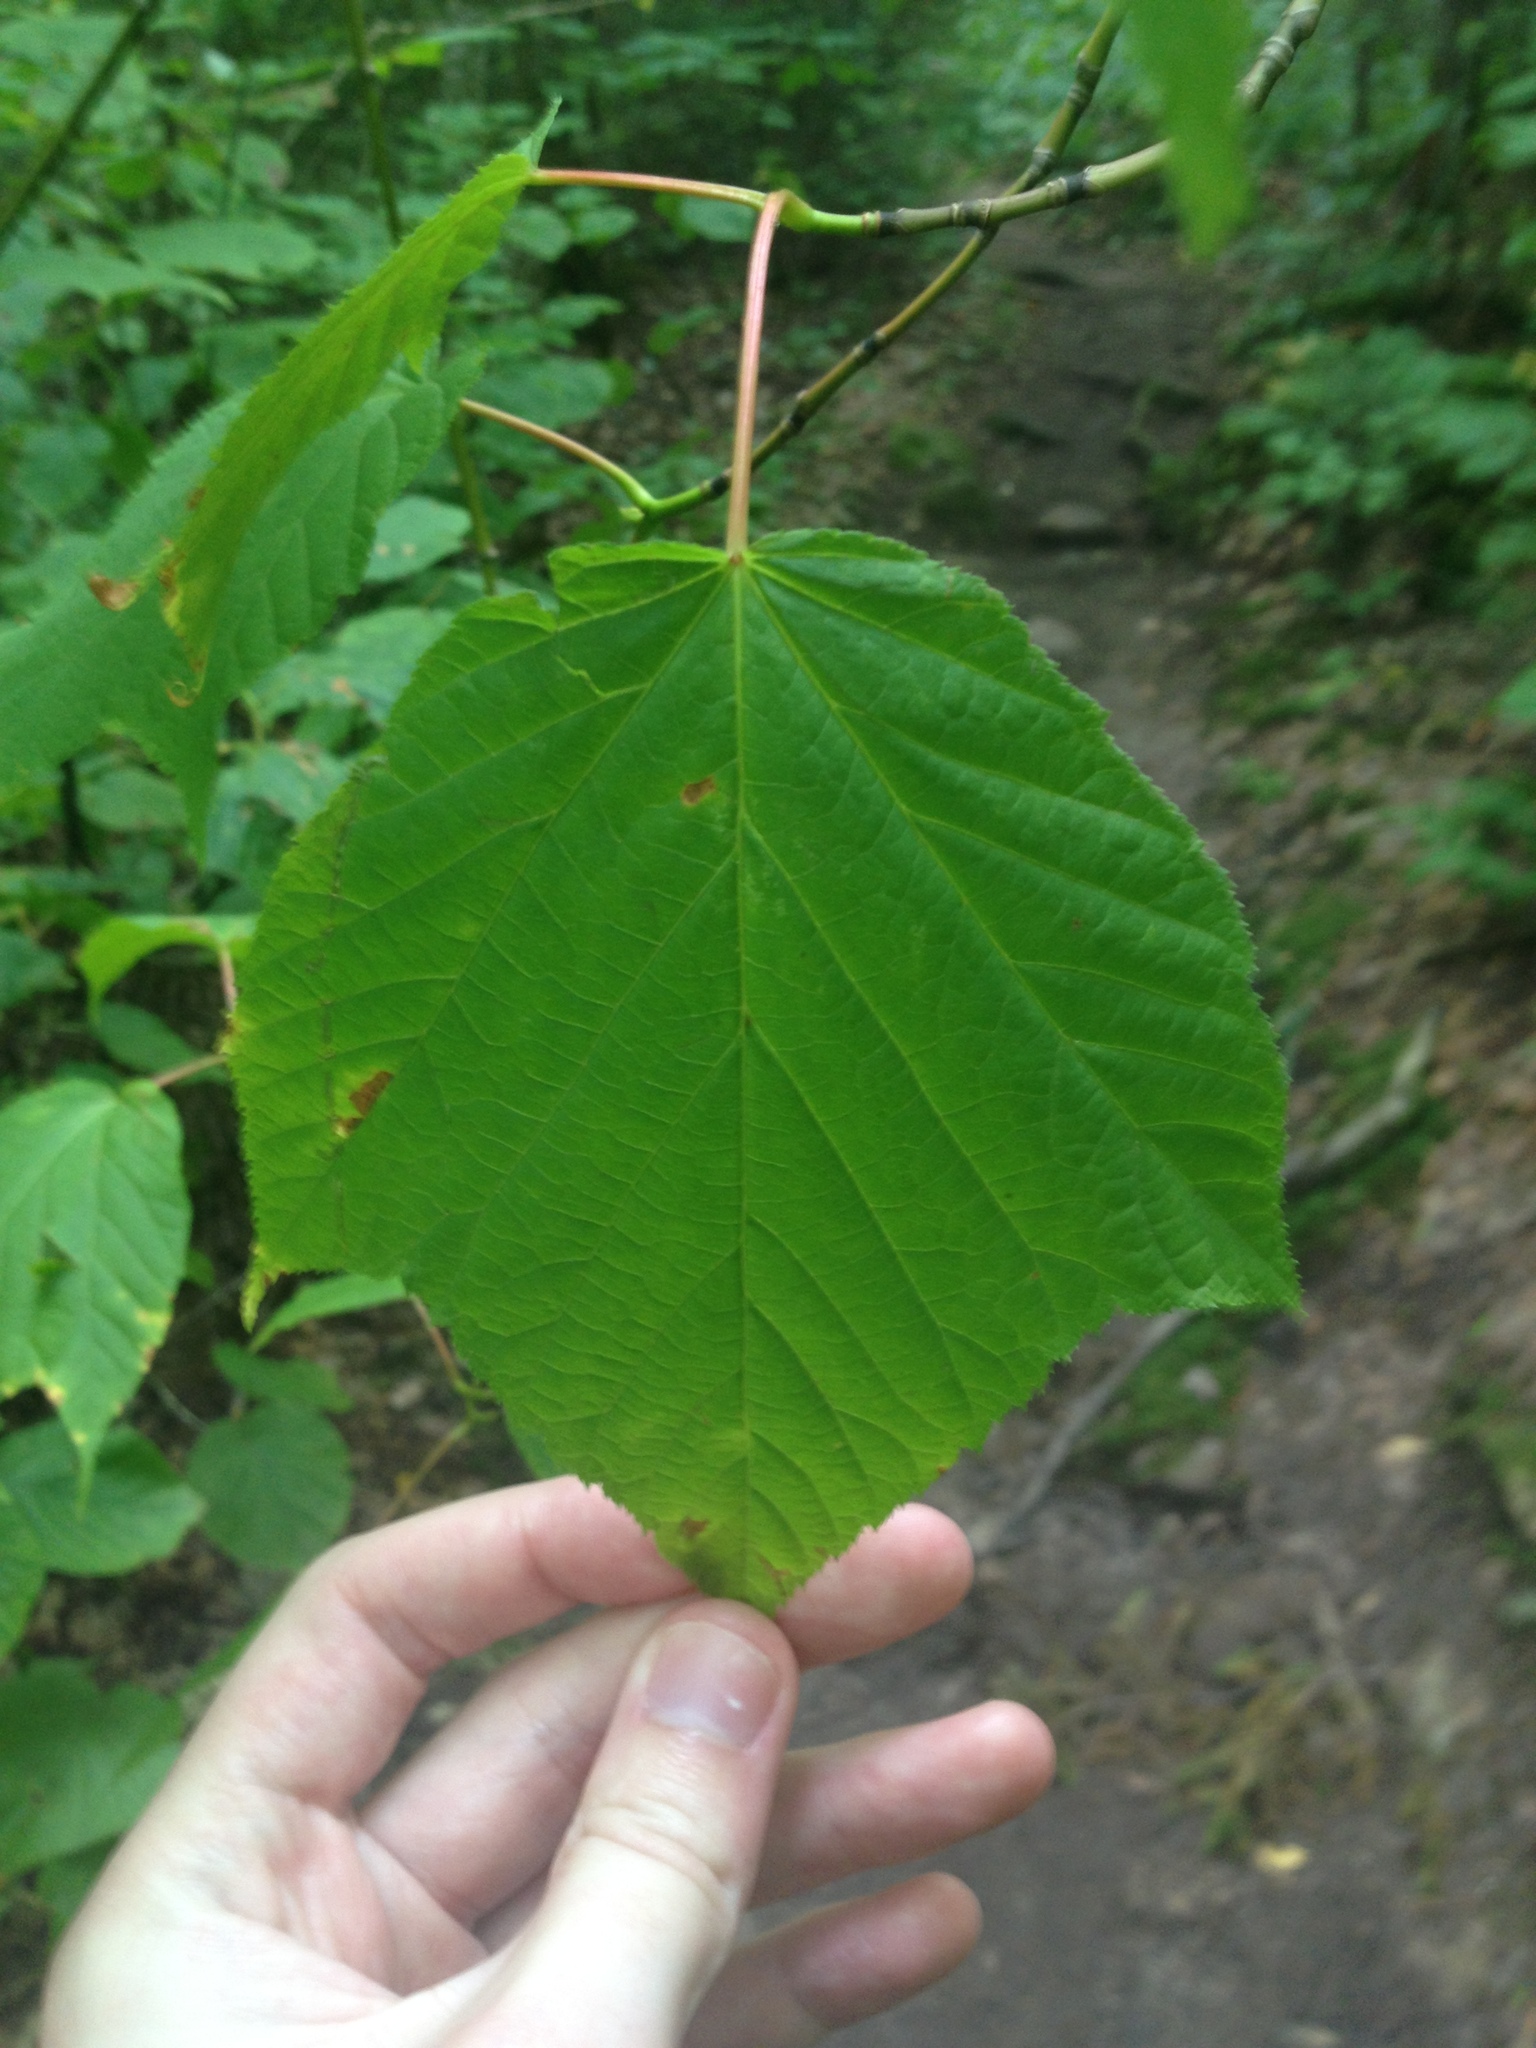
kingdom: Plantae
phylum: Tracheophyta
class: Magnoliopsida
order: Sapindales
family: Sapindaceae
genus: Acer
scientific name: Acer pensylvanicum
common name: Moosewood
